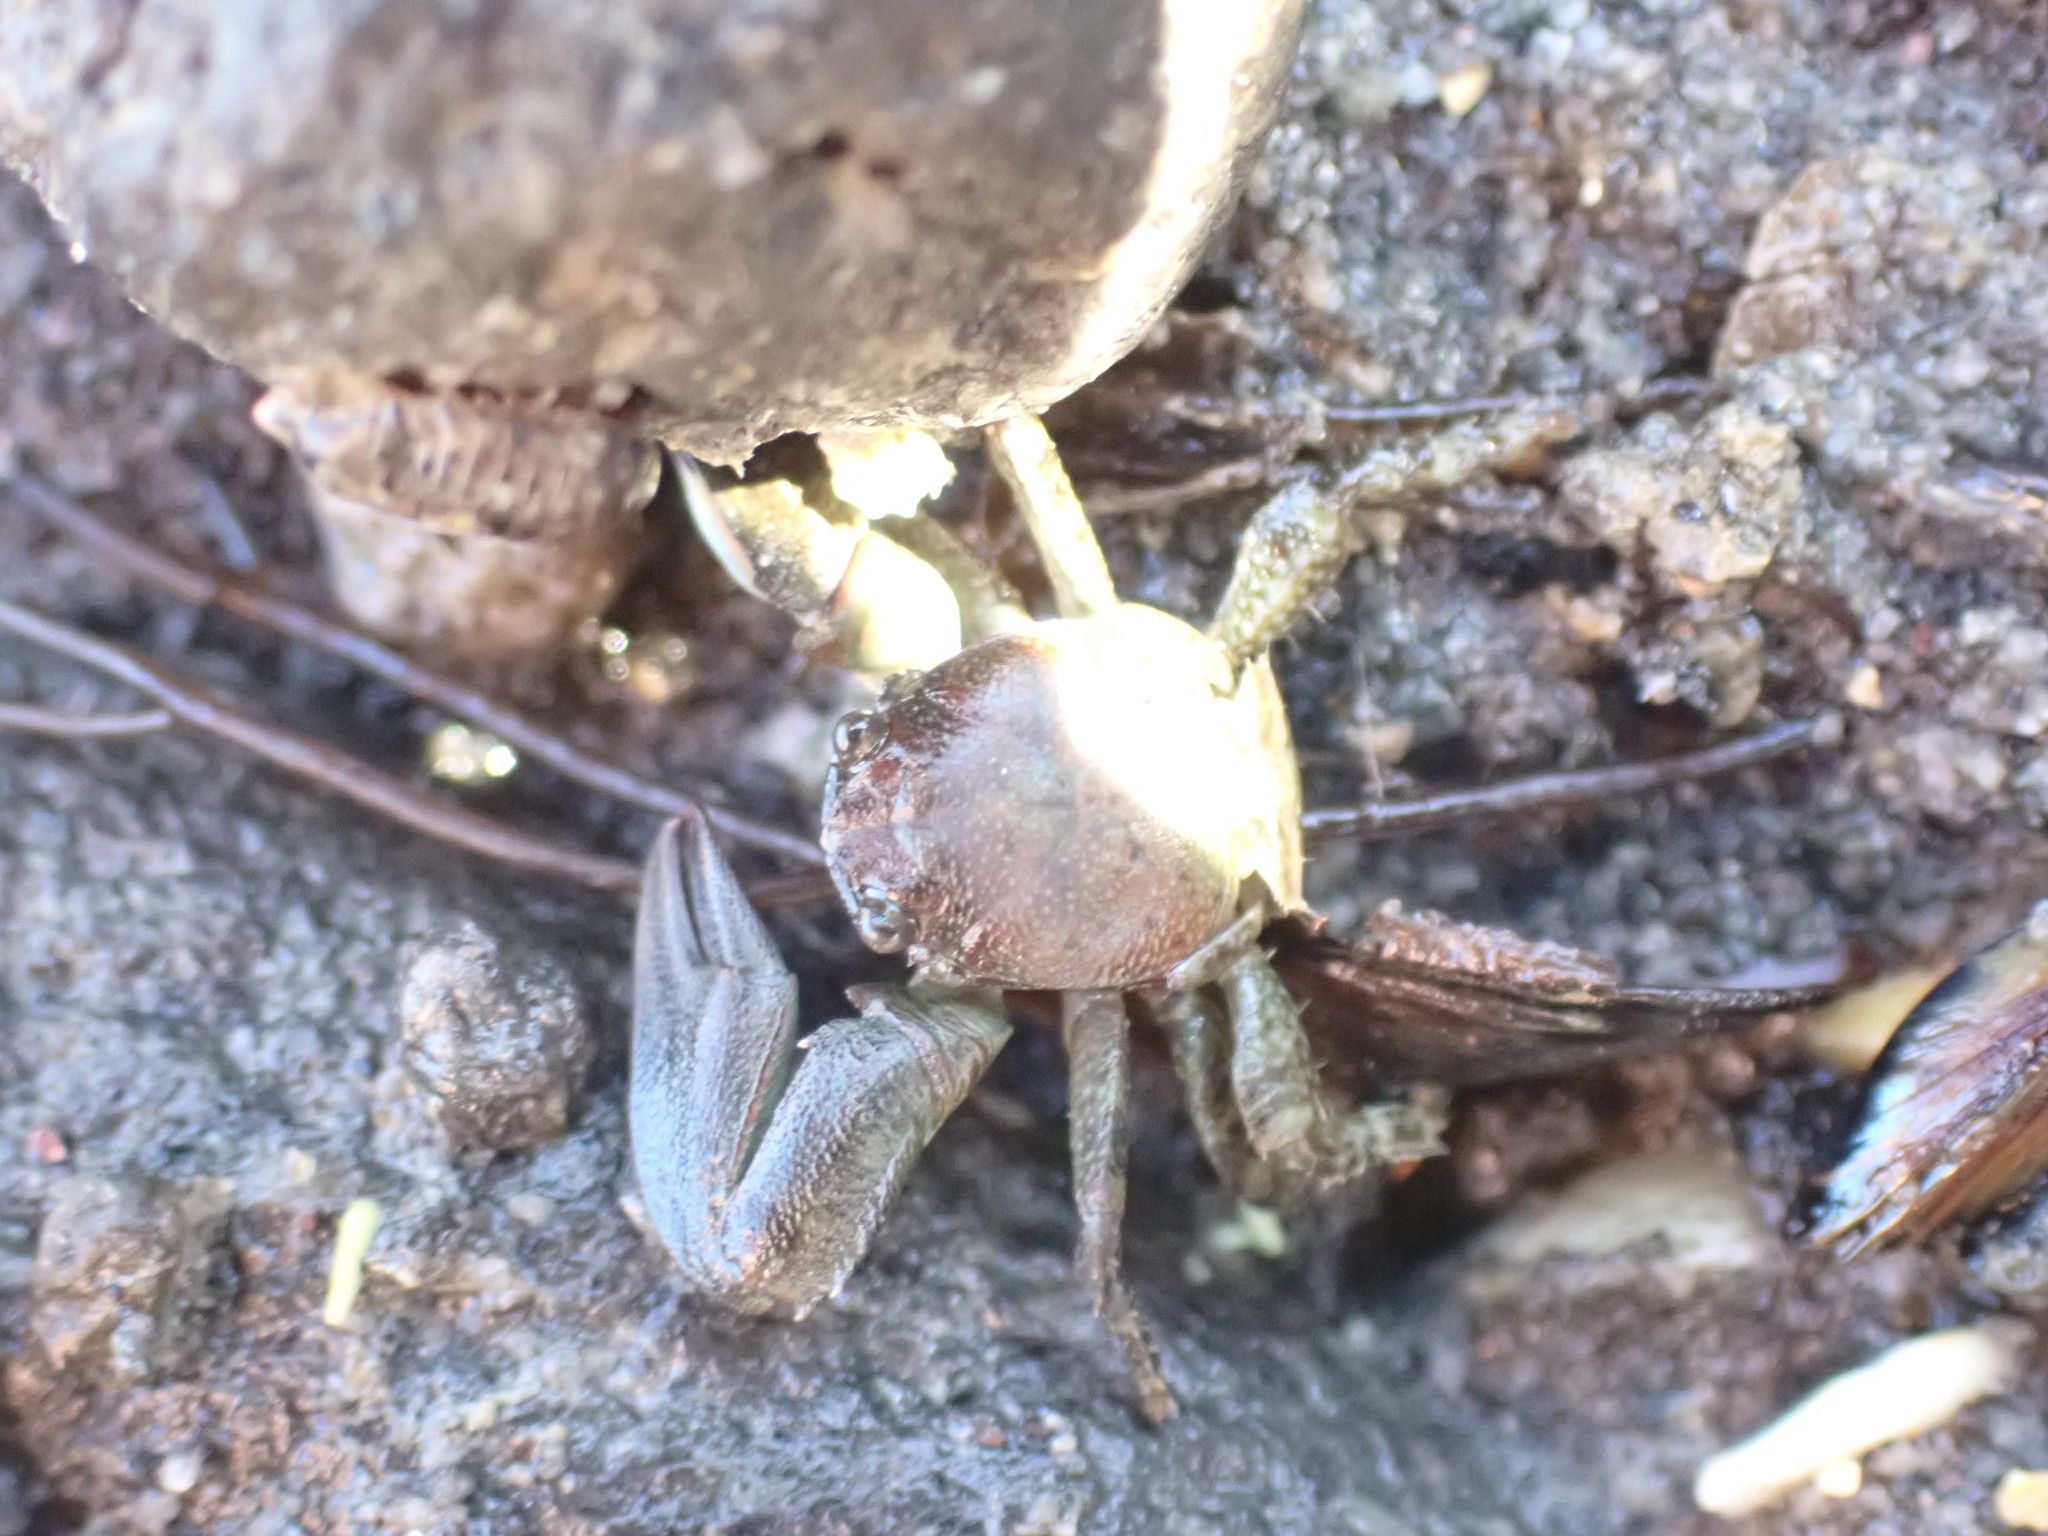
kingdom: Animalia
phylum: Arthropoda
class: Malacostraca
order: Decapoda
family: Porcellanidae
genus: Petrolisthes
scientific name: Petrolisthes elongatus
